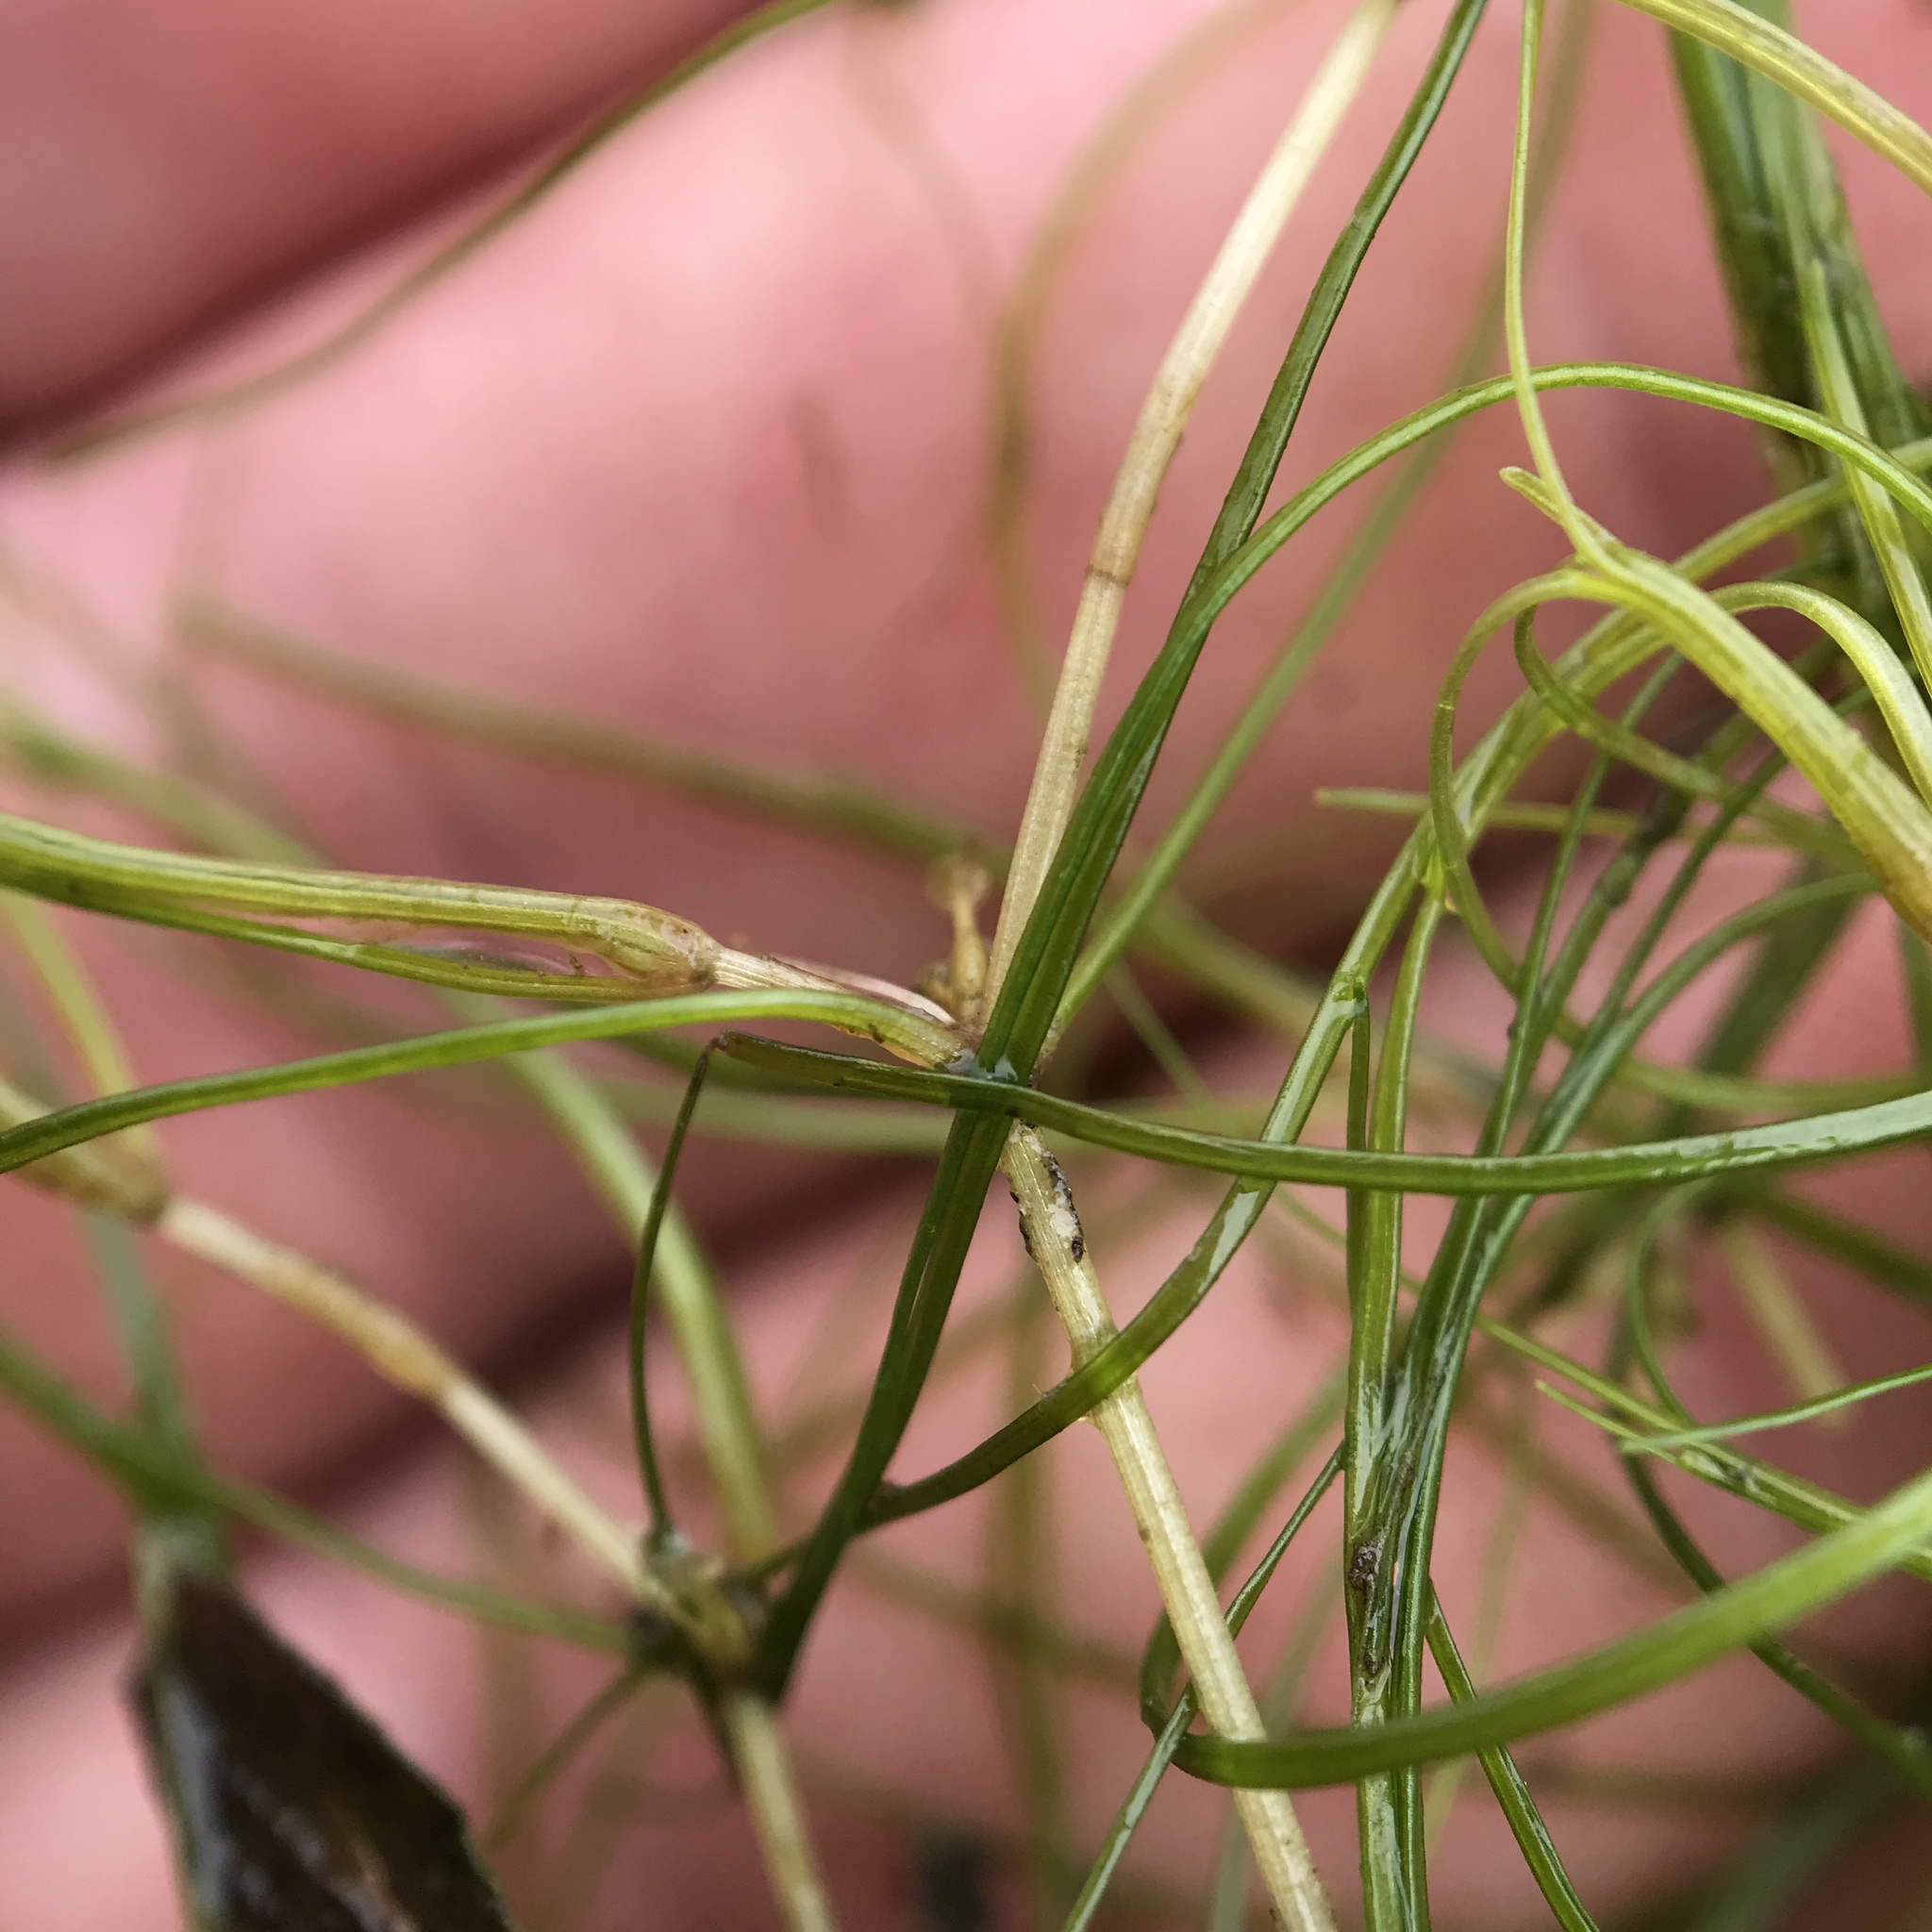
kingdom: Plantae
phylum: Tracheophyta
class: Liliopsida
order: Alismatales
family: Potamogetonaceae
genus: Zannichellia
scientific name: Zannichellia palustris
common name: Horned pondweed
